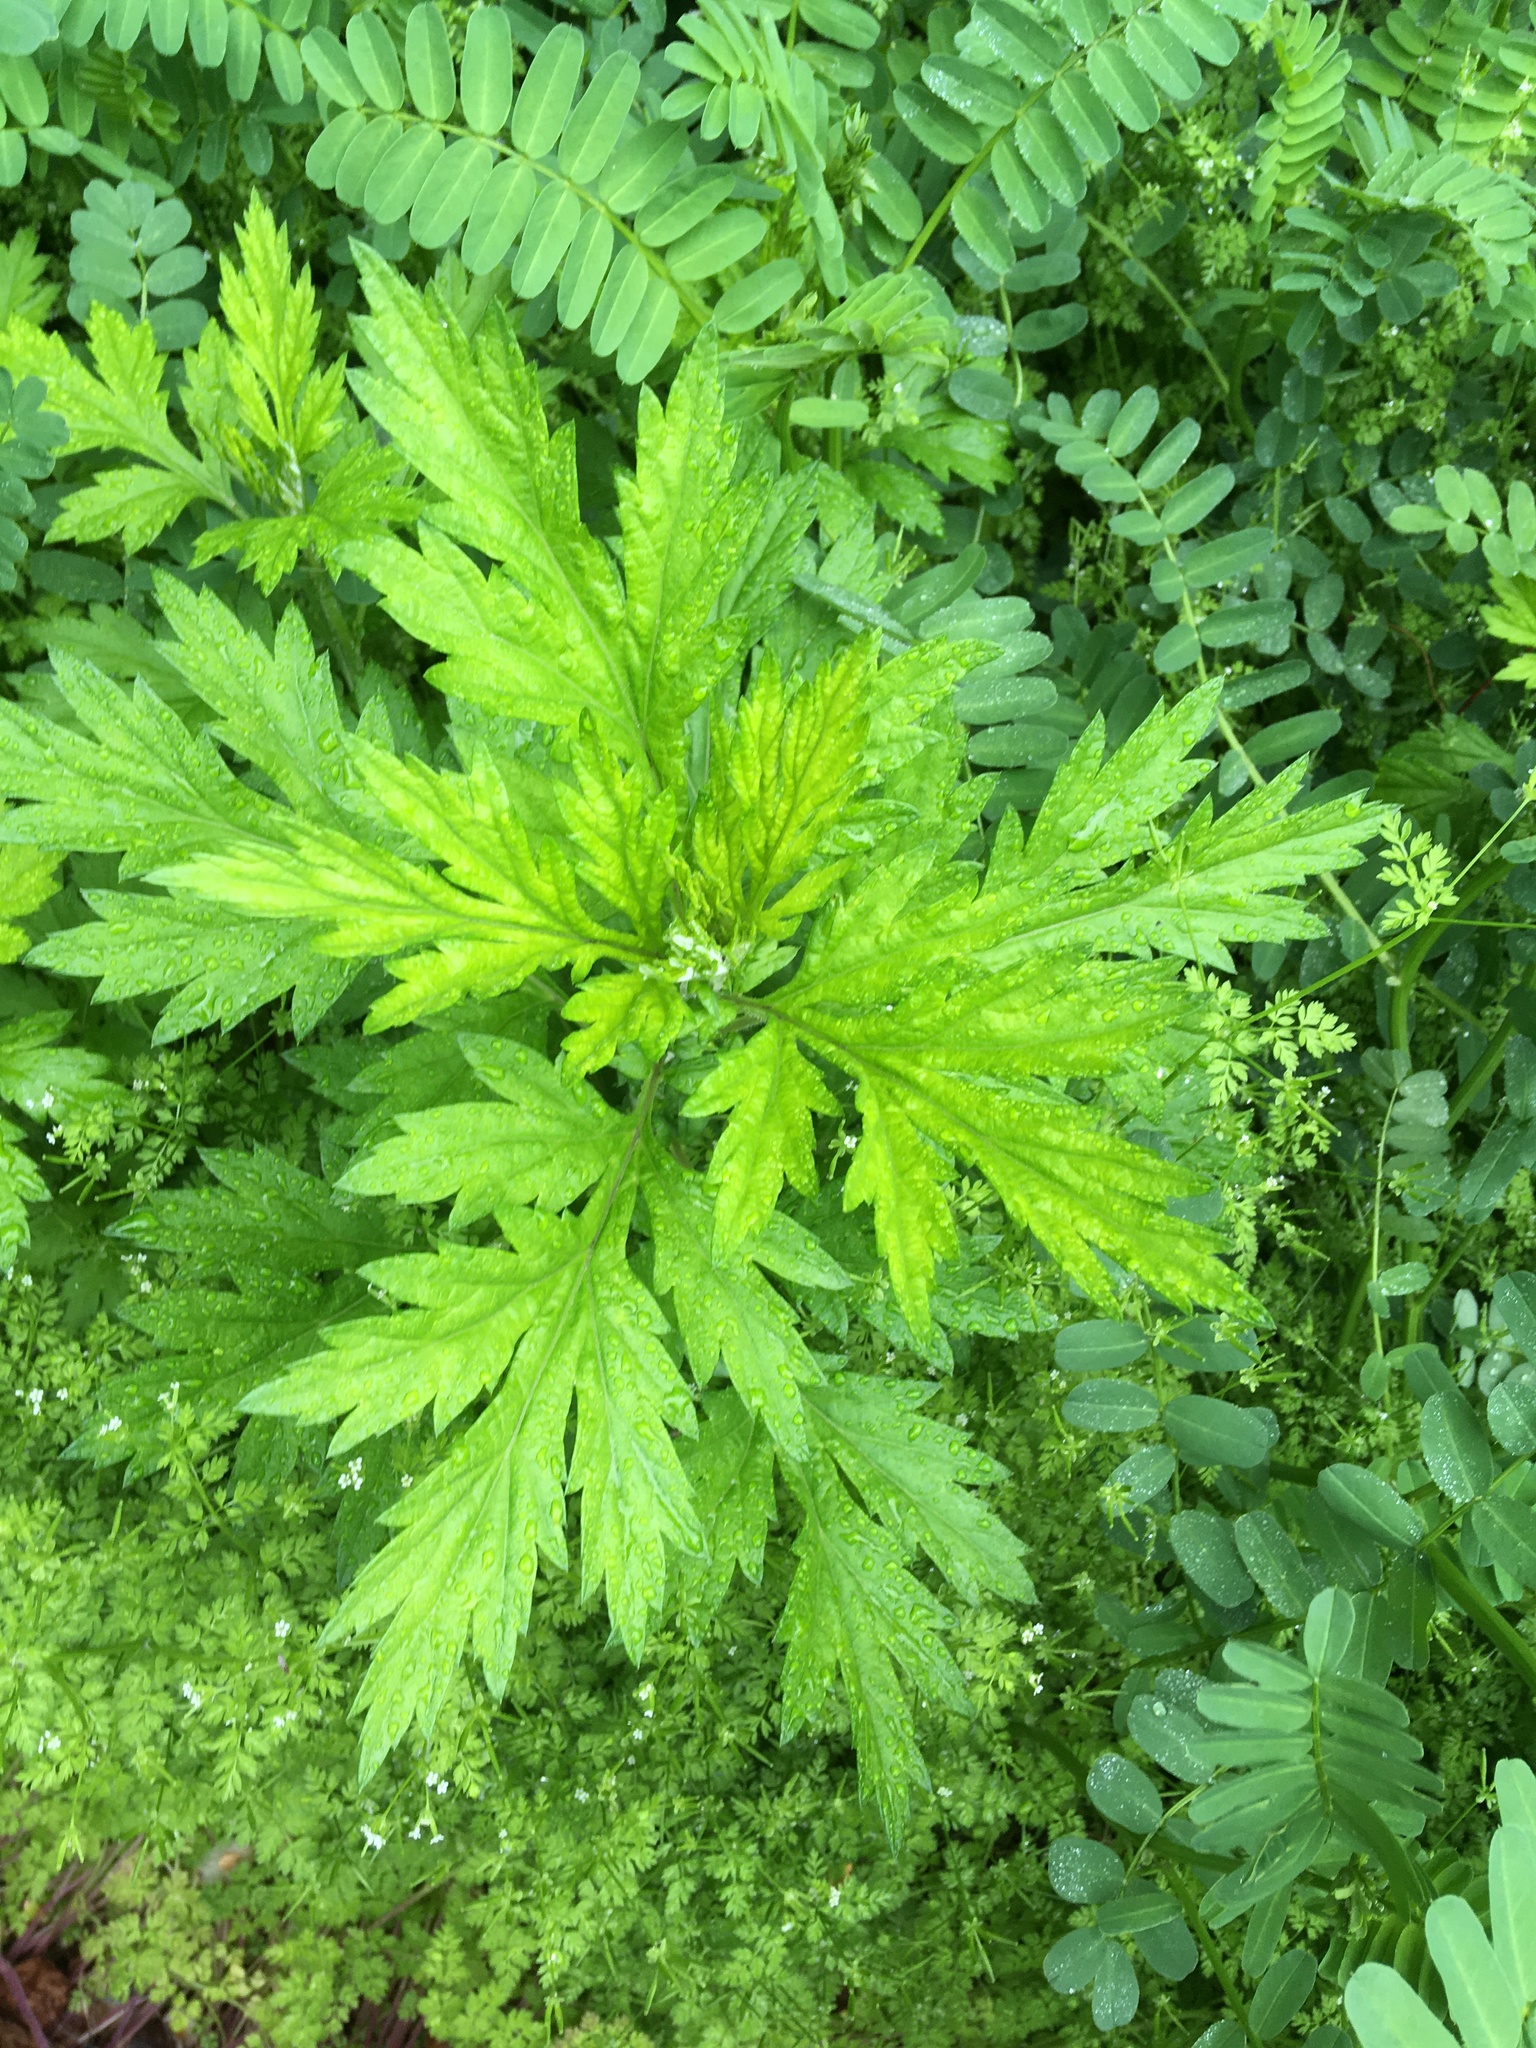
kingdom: Plantae
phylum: Tracheophyta
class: Magnoliopsida
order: Asterales
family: Asteraceae
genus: Artemisia
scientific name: Artemisia vulgaris
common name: Mugwort
